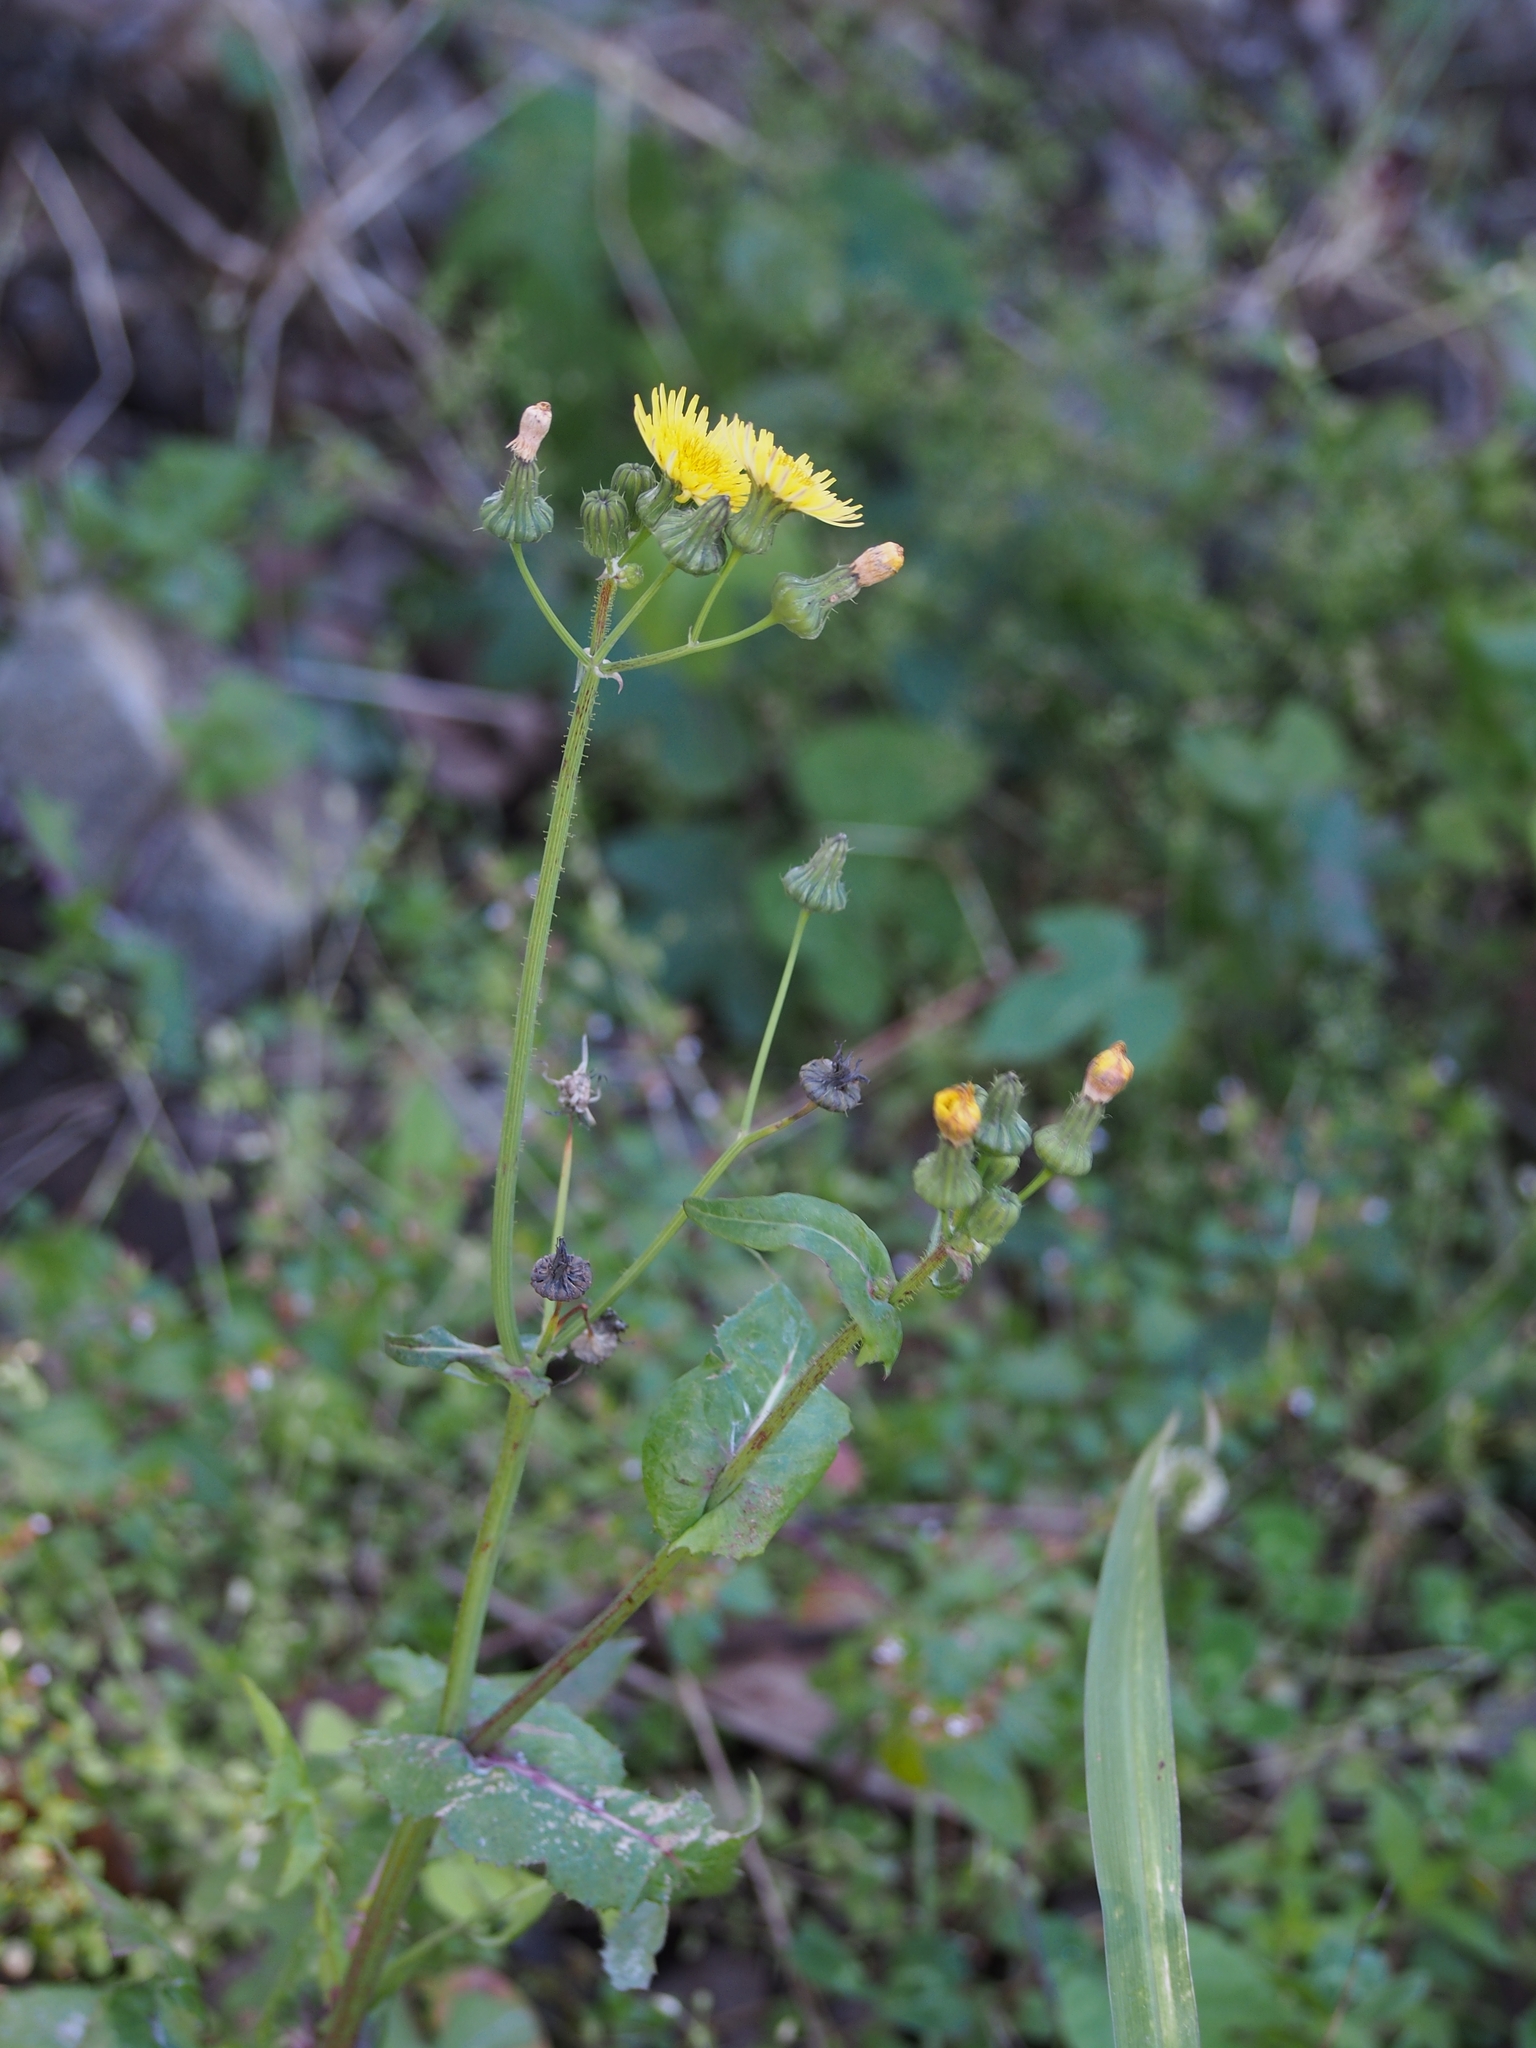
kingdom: Plantae
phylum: Tracheophyta
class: Magnoliopsida
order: Asterales
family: Asteraceae
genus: Sonchus
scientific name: Sonchus oleraceus
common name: Common sowthistle
